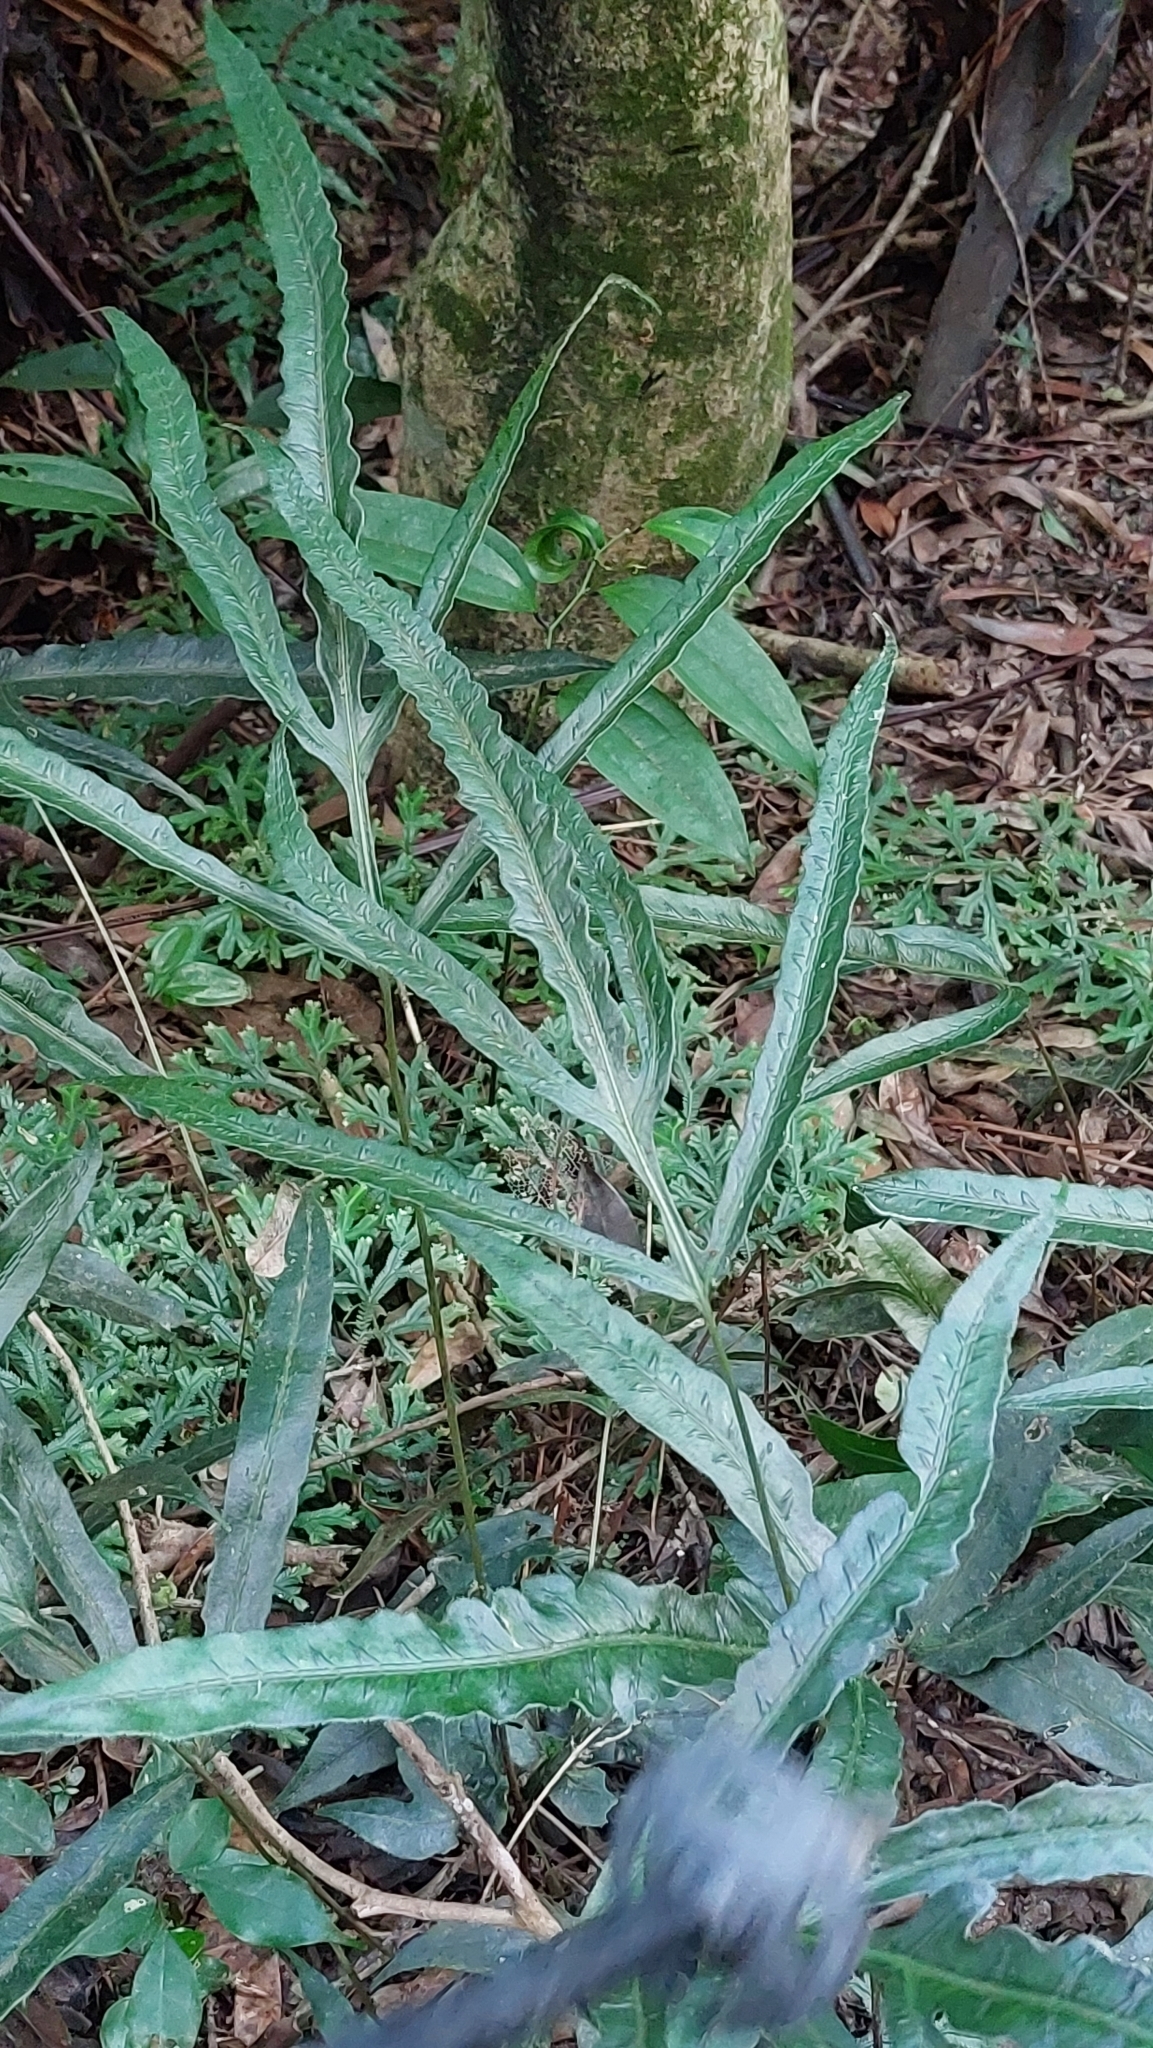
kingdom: Plantae
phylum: Tracheophyta
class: Polypodiopsida
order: Polypodiales
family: Blechnaceae
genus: Woodwardia
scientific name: Woodwardia harlandii
